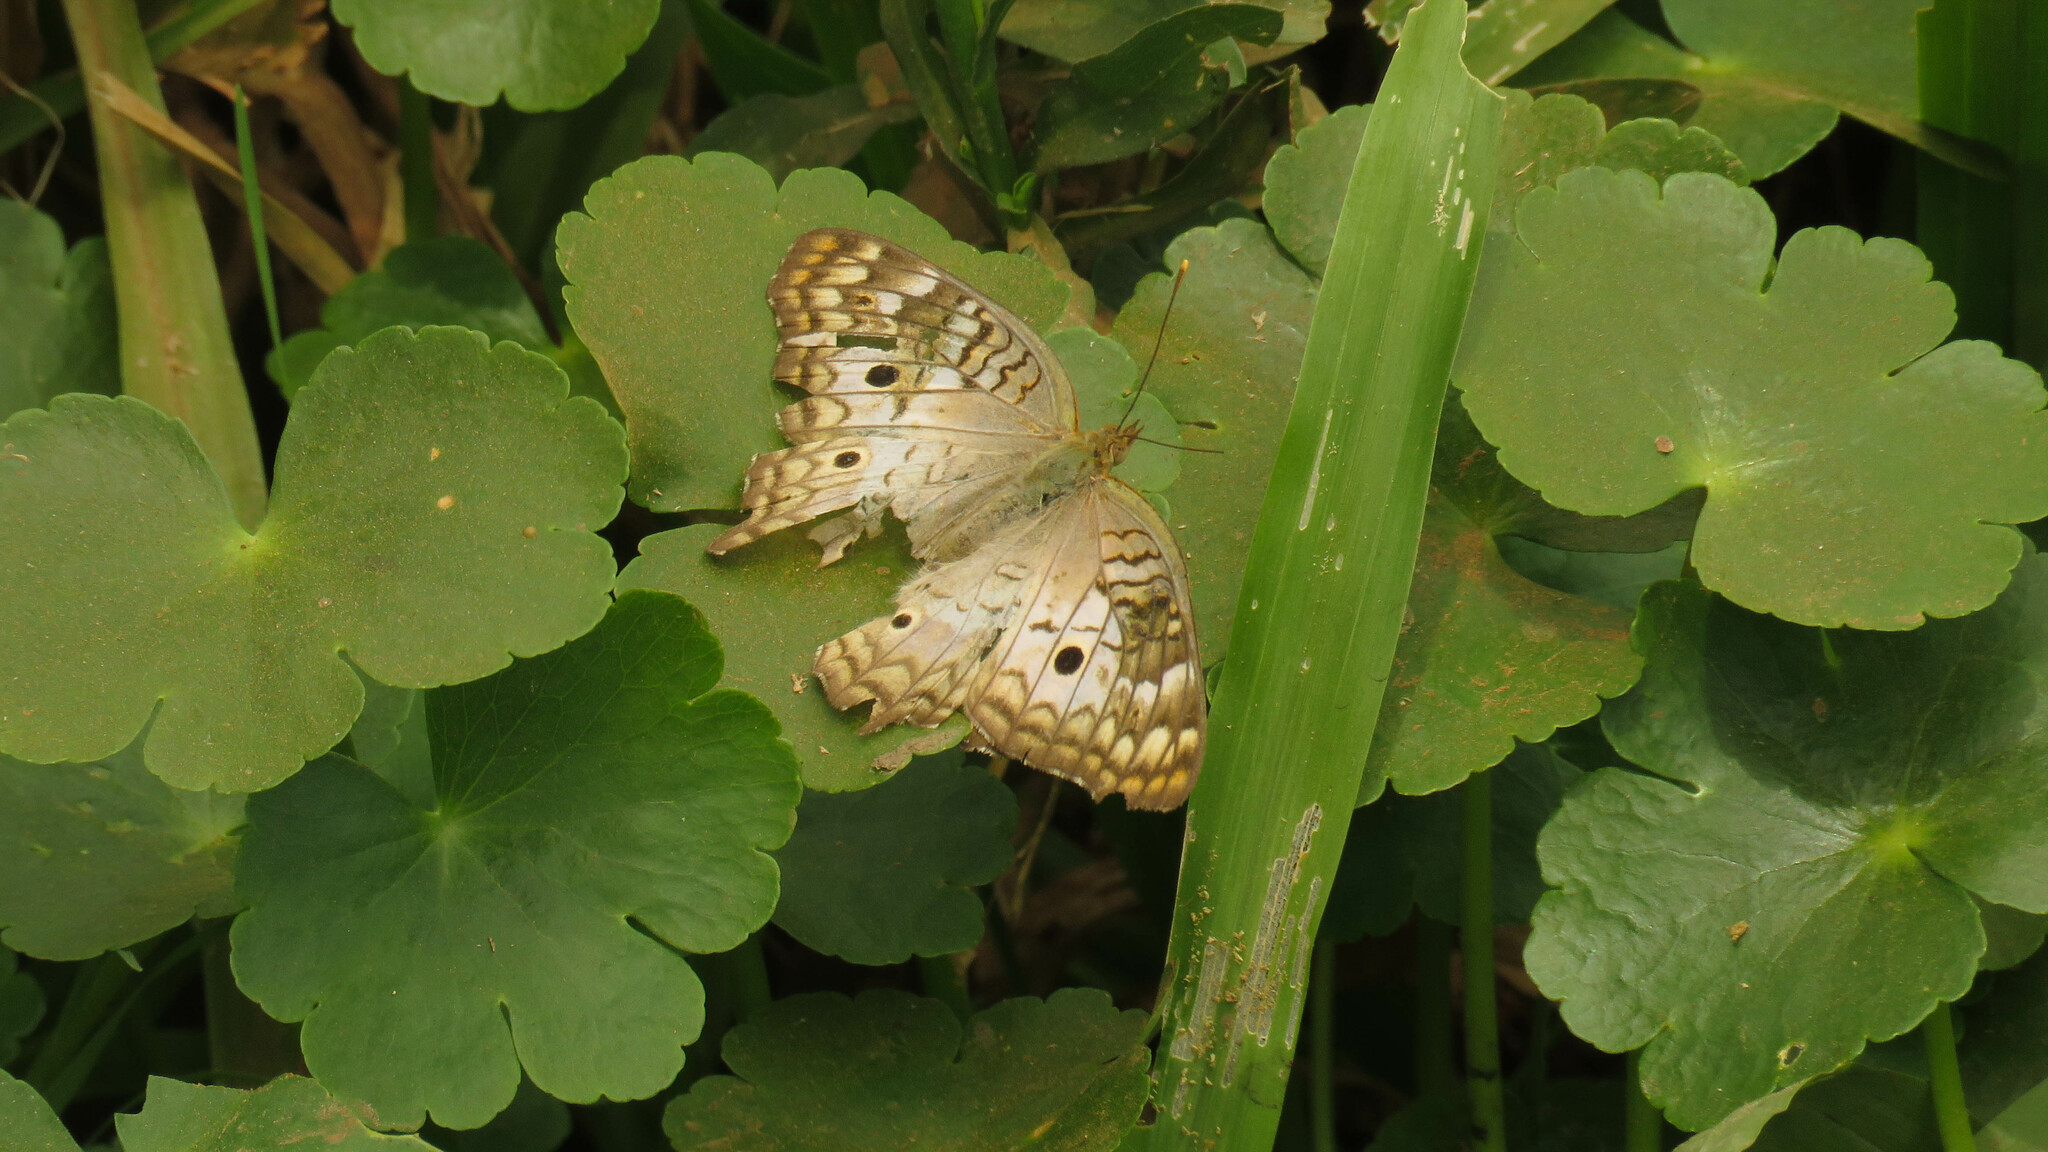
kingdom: Animalia
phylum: Arthropoda
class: Insecta
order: Lepidoptera
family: Nymphalidae
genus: Anartia
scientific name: Anartia jatrophae
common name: White peacock
